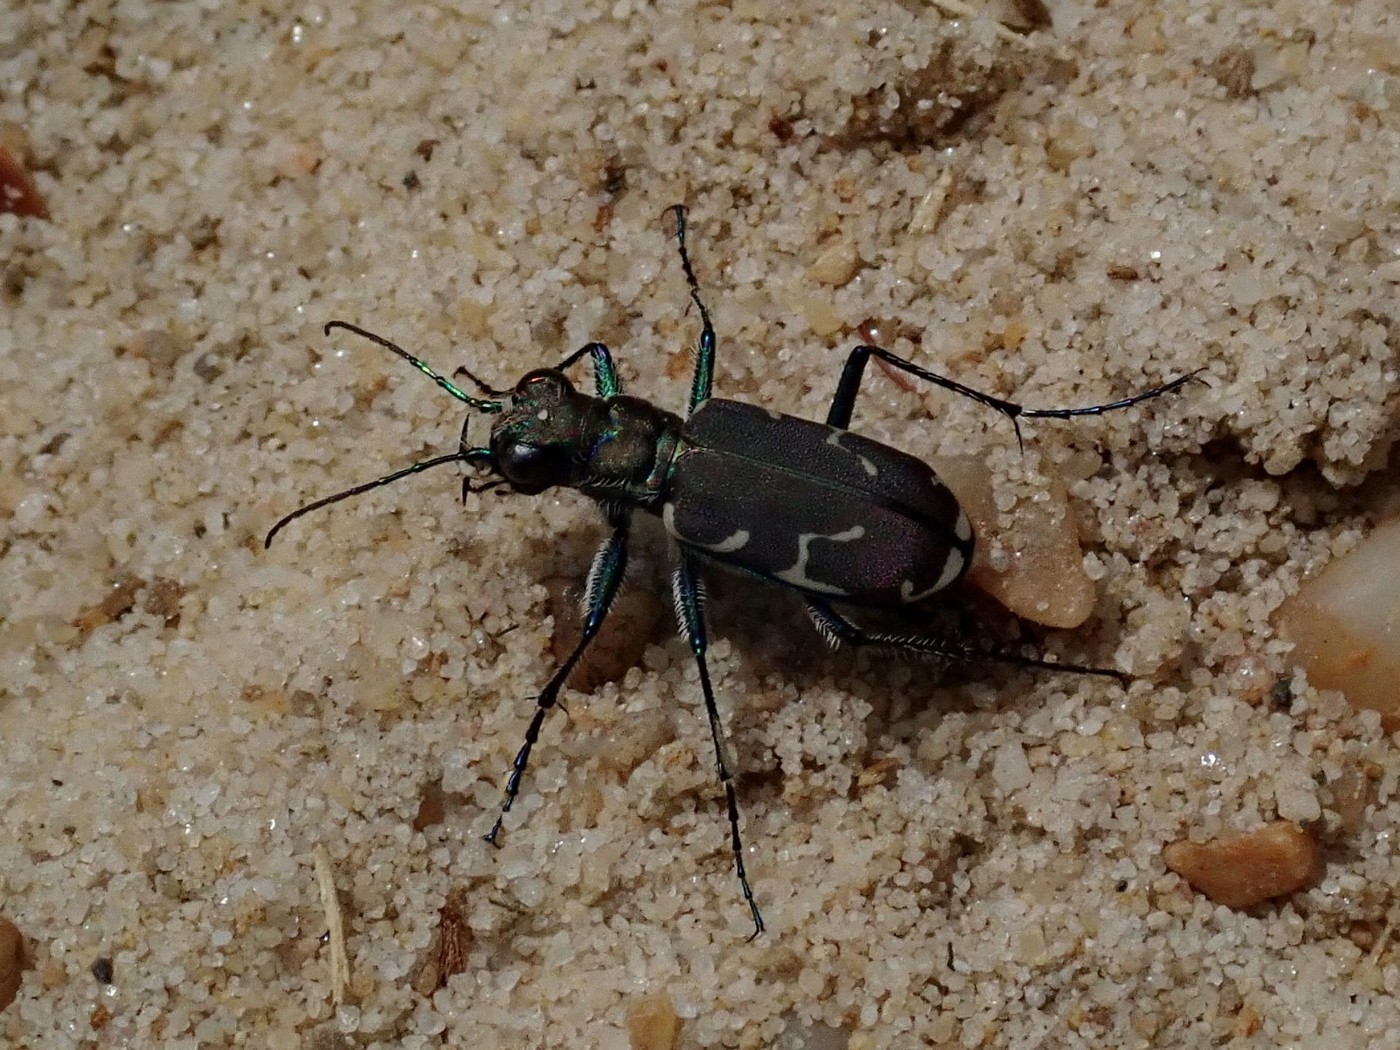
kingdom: Animalia
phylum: Arthropoda
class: Insecta
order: Coleoptera
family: Carabidae
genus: Cicindela
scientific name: Cicindela ancocisconensis
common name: Appalachian tiger beetle
